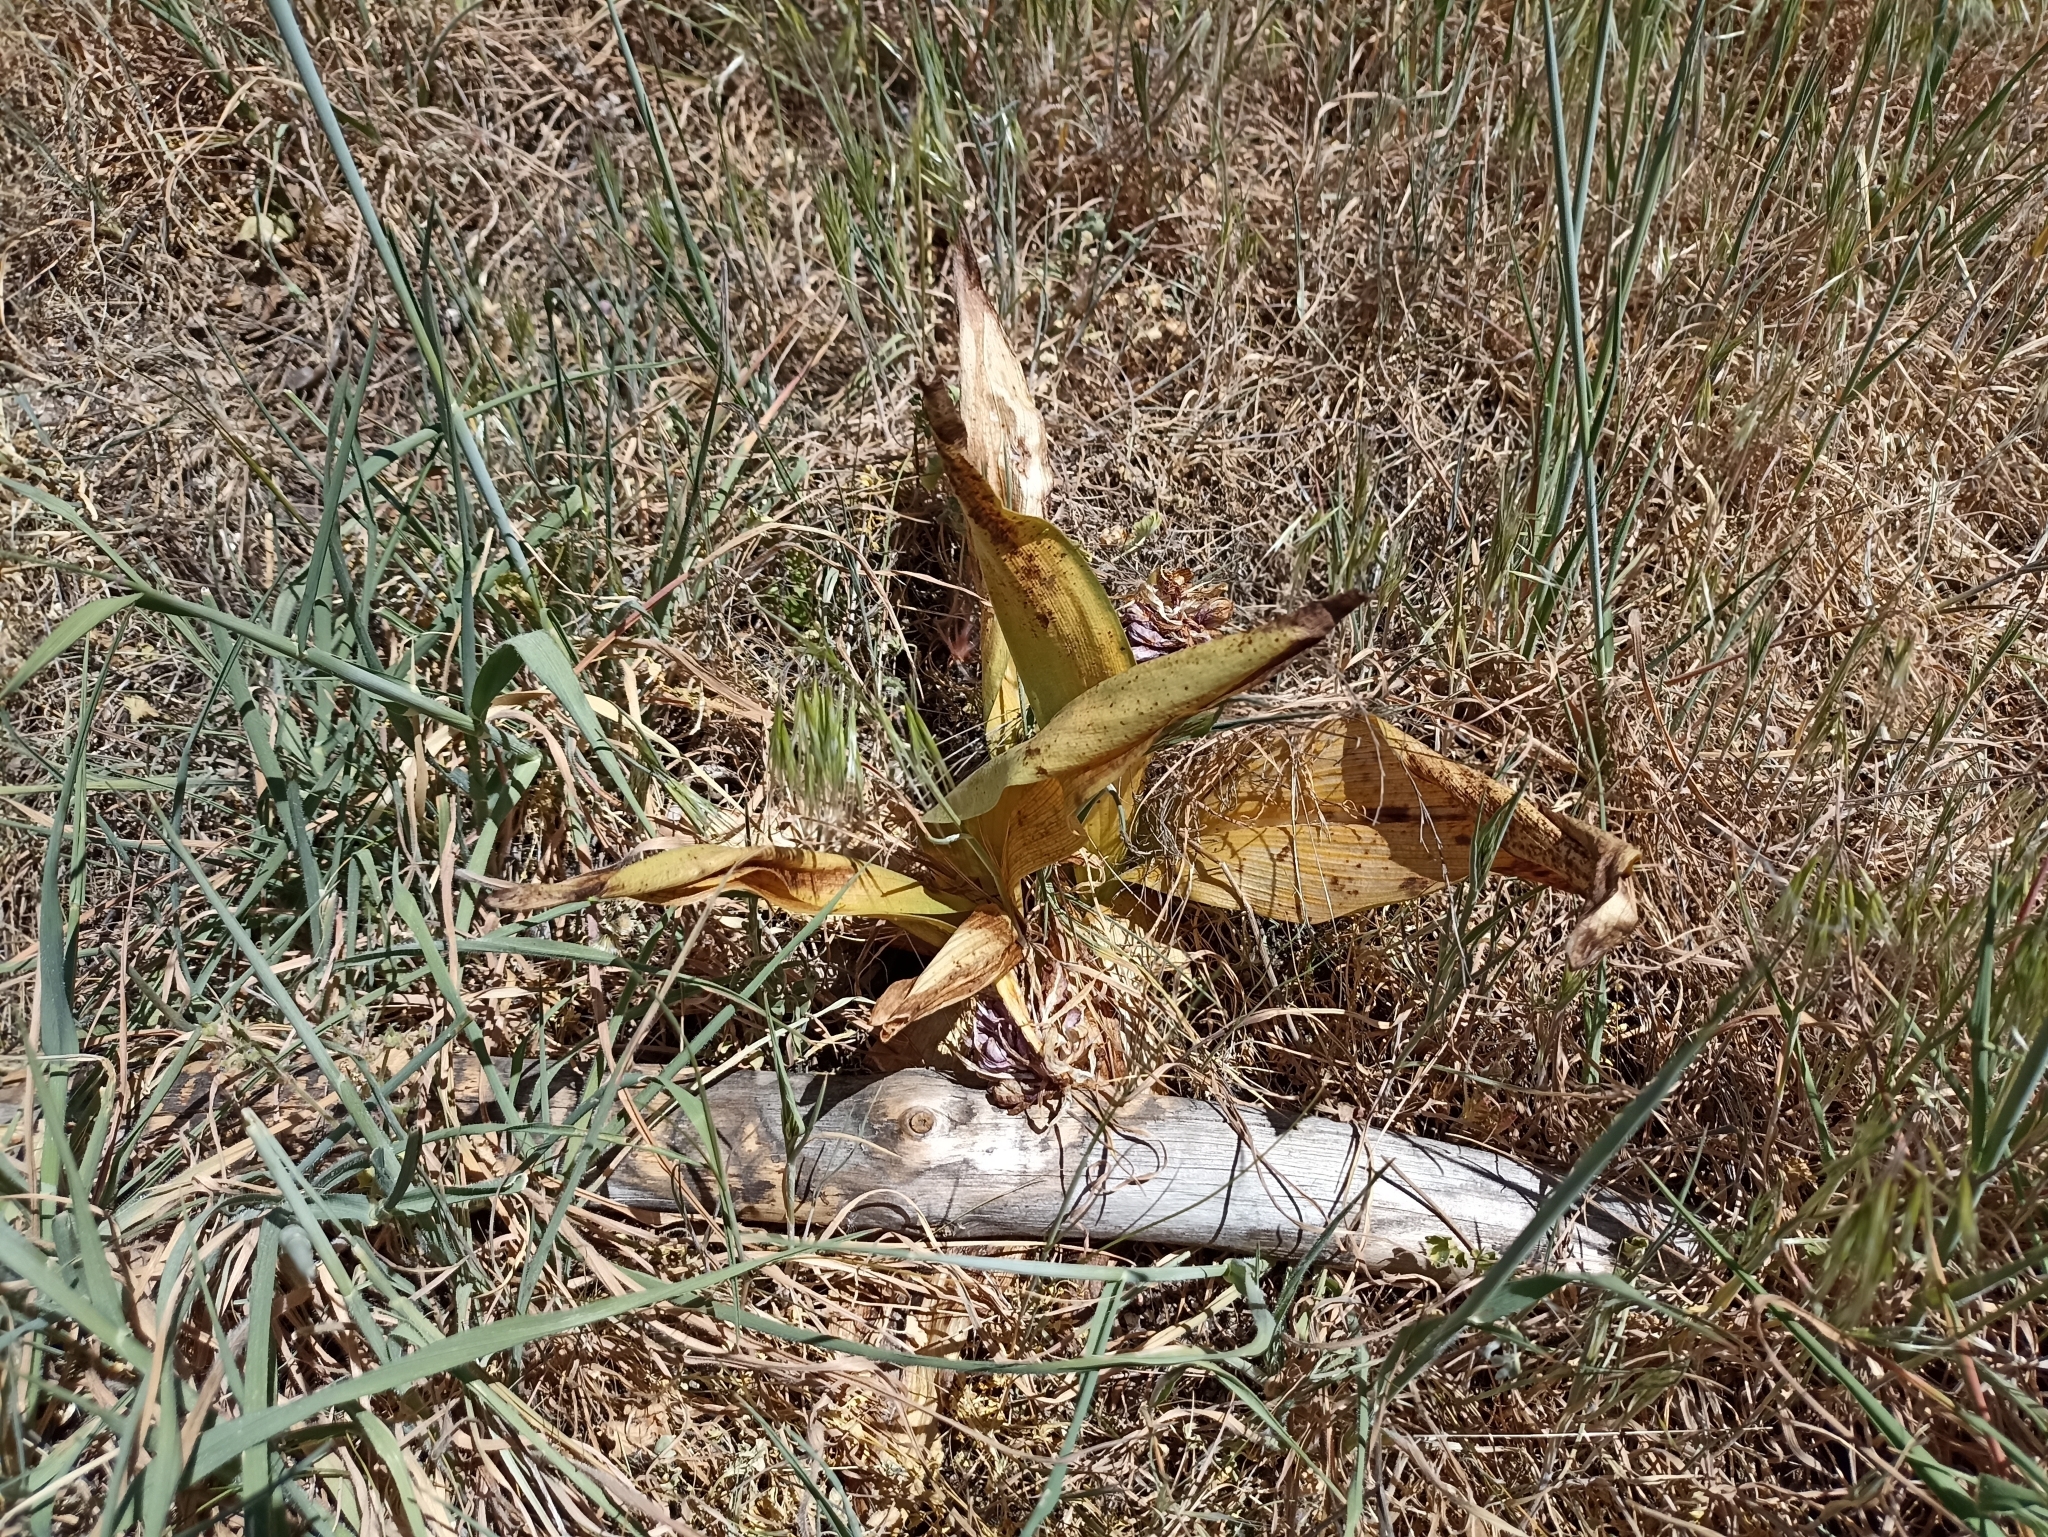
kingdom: Plantae
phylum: Tracheophyta
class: Liliopsida
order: Asparagales
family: Orchidaceae
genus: Himantoglossum
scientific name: Himantoglossum robertianum
